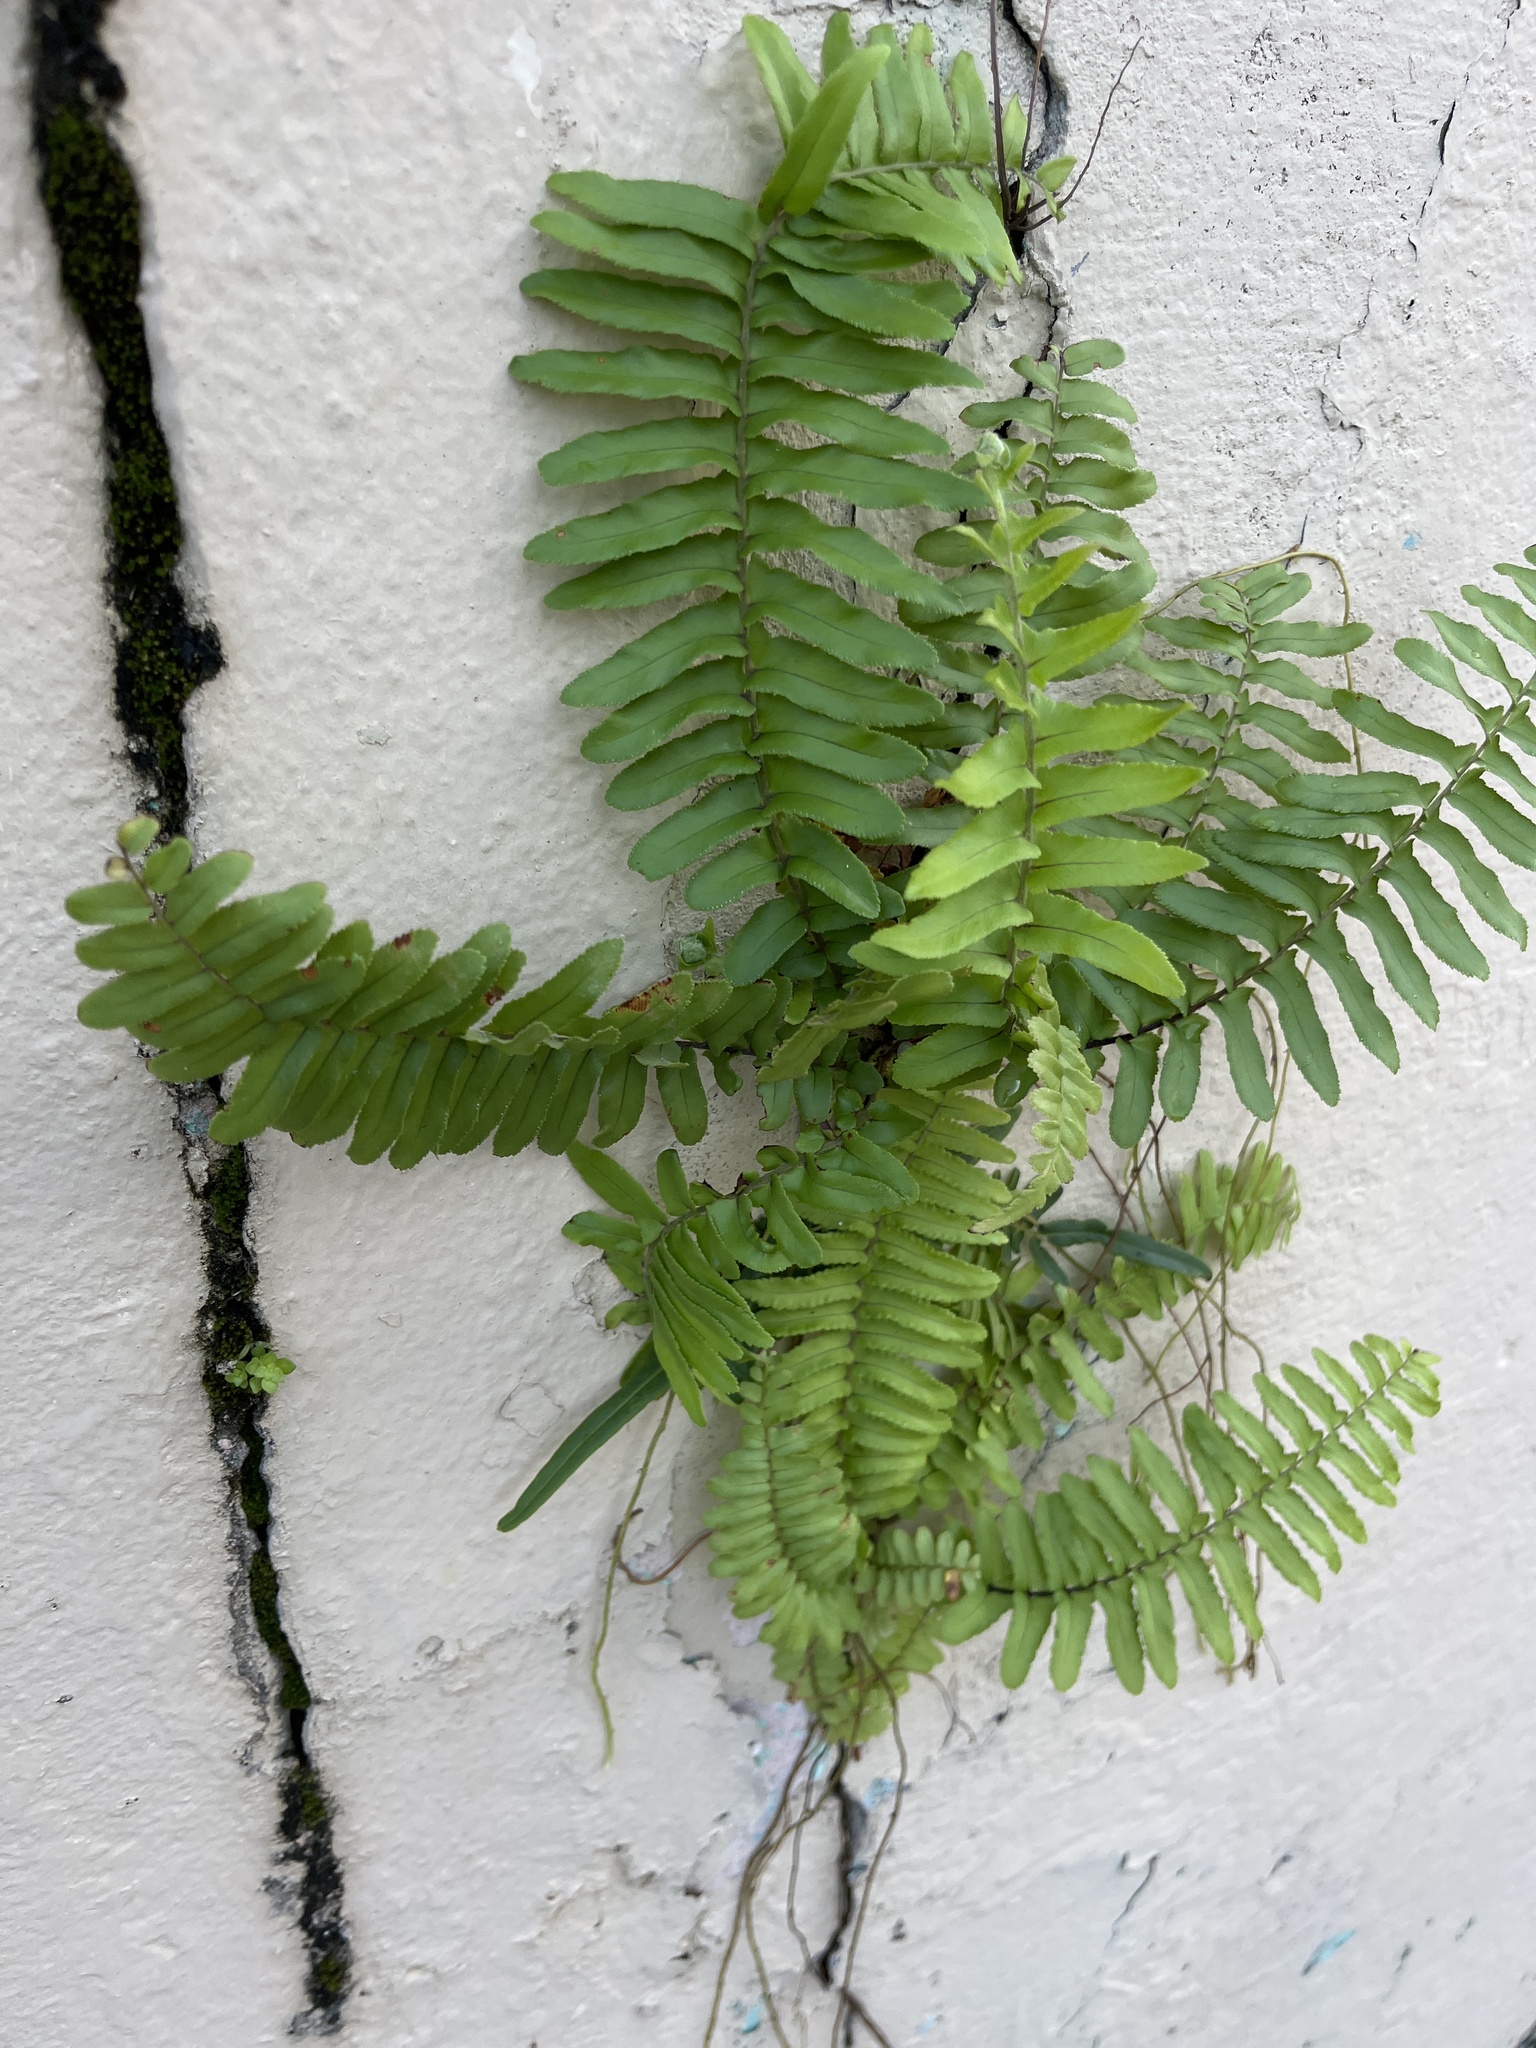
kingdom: Plantae
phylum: Tracheophyta
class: Polypodiopsida
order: Polypodiales
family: Nephrolepidaceae
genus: Nephrolepis
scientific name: Nephrolepis brownii
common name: Asian swordfern
